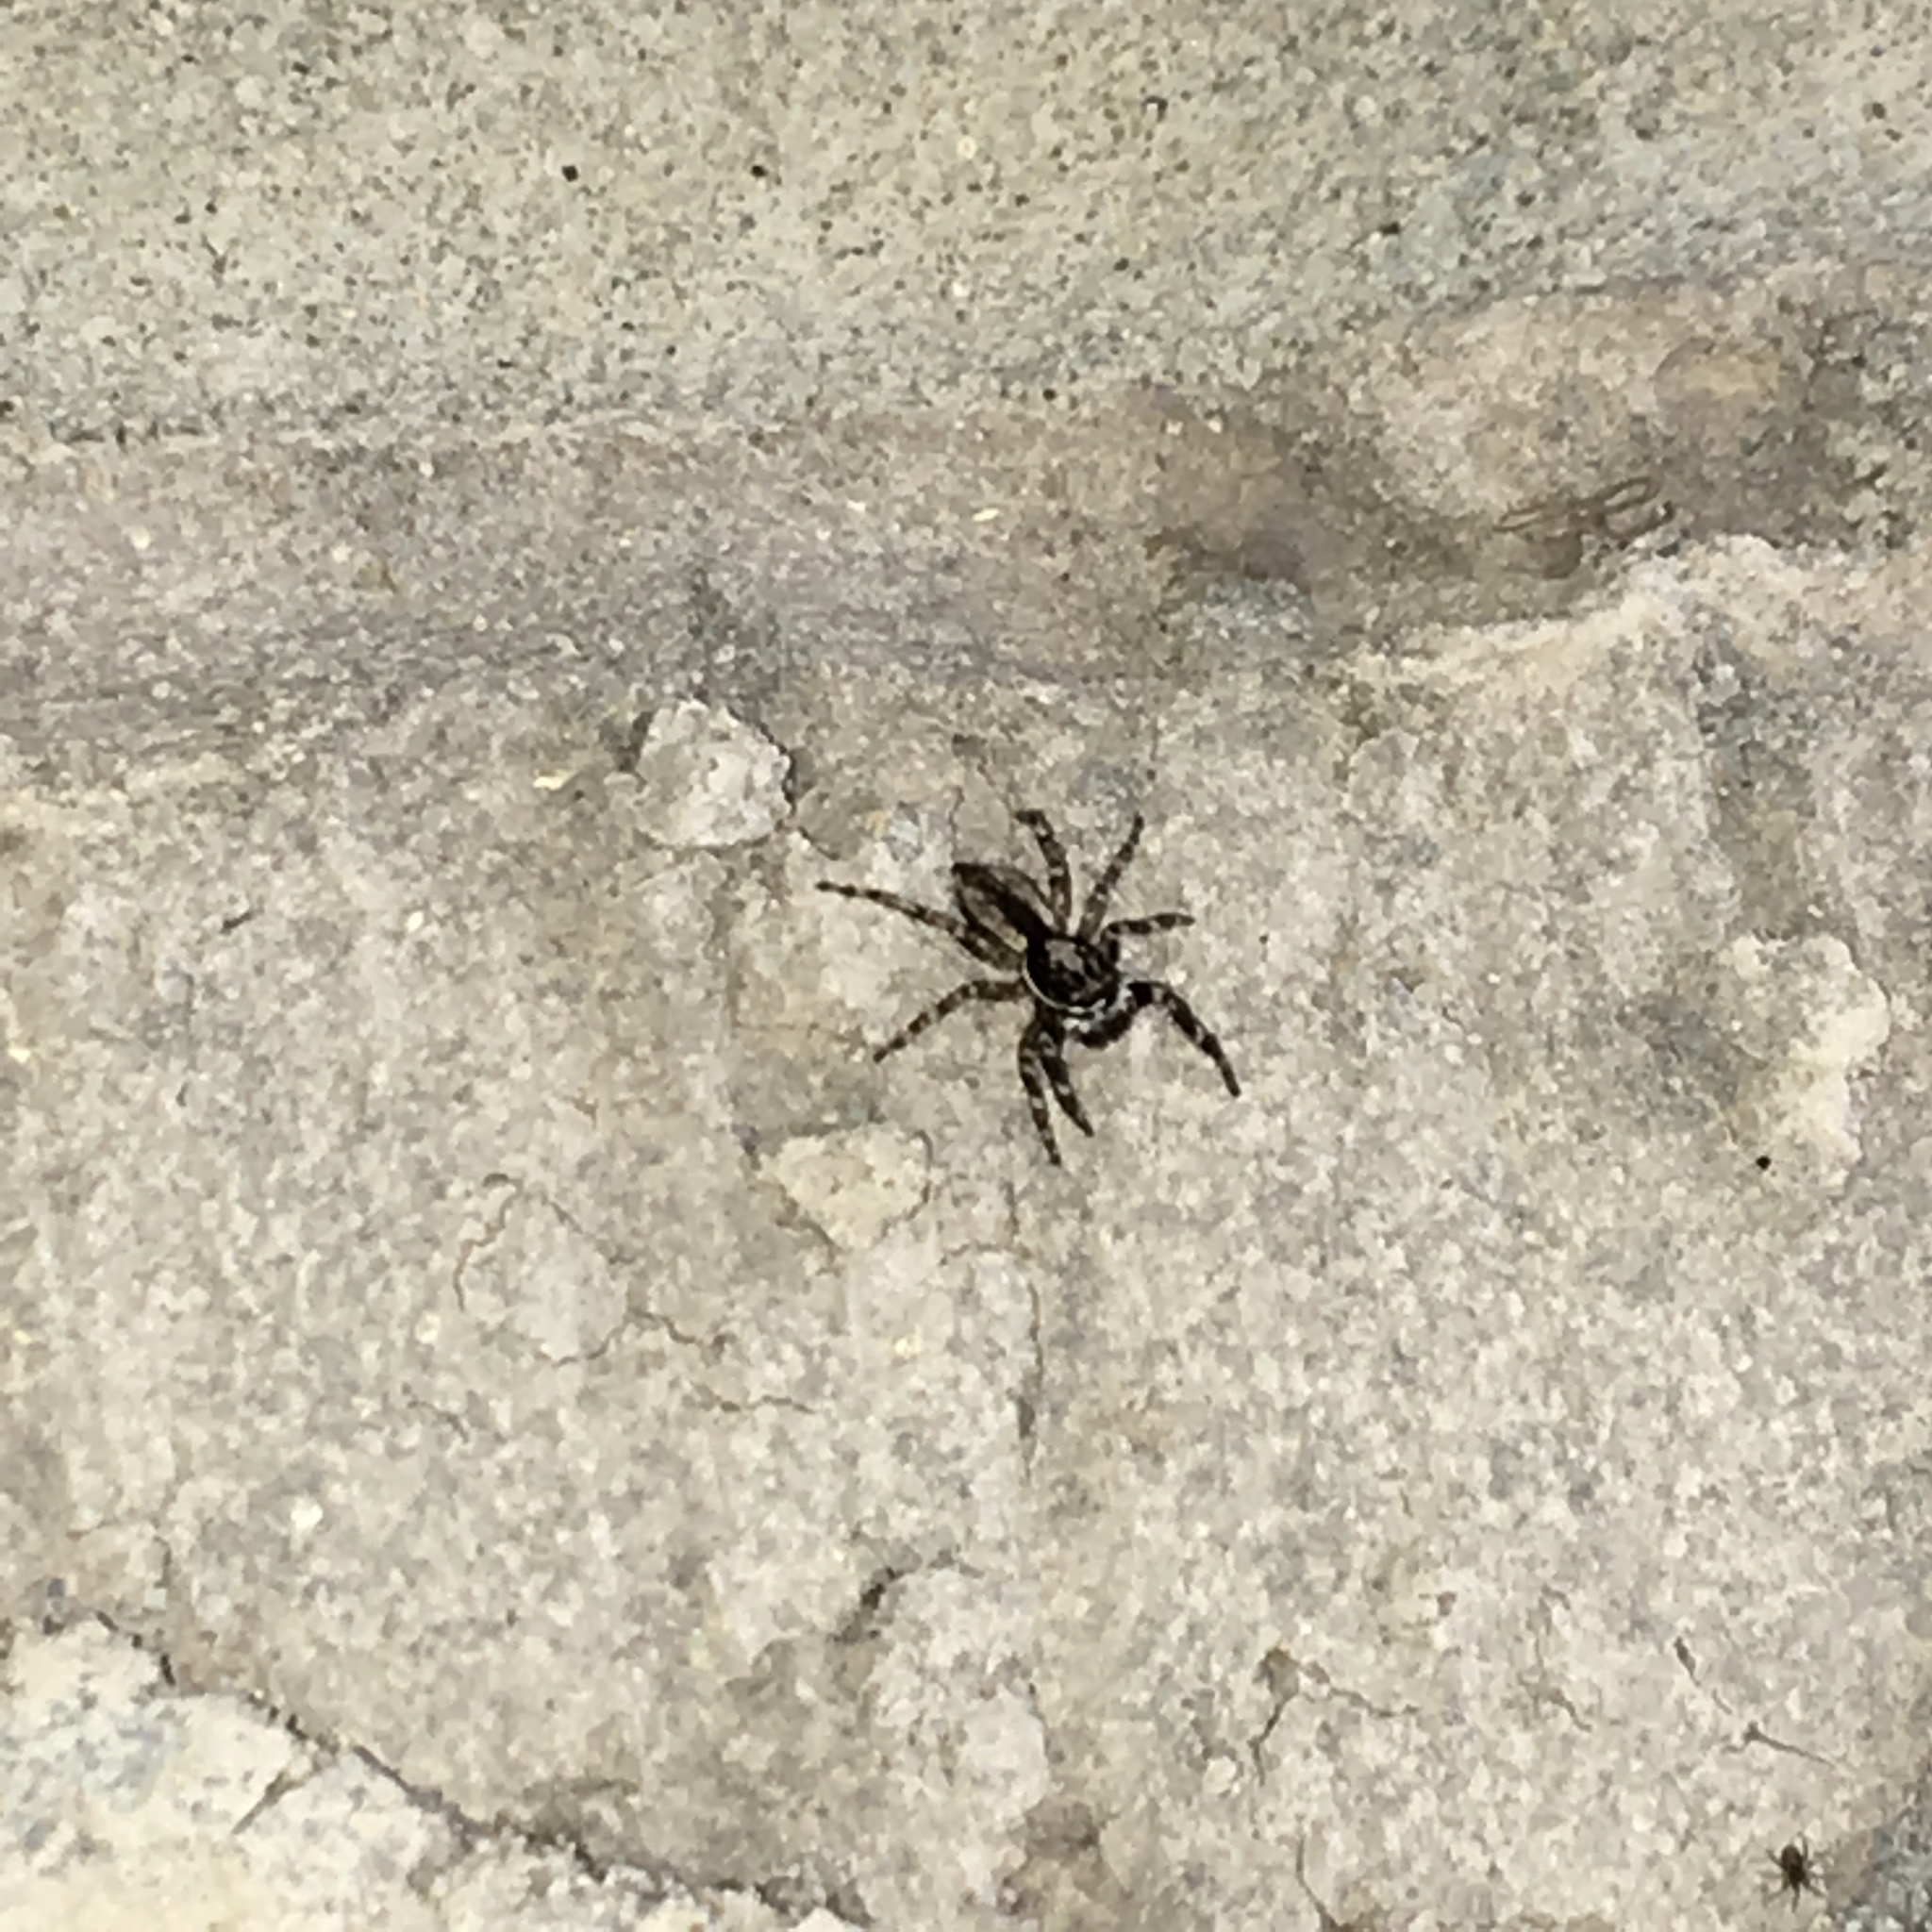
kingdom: Animalia
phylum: Arthropoda
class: Arachnida
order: Araneae
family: Salticidae
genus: Menemerus
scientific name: Menemerus bivittatus
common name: Gray wall jumper
